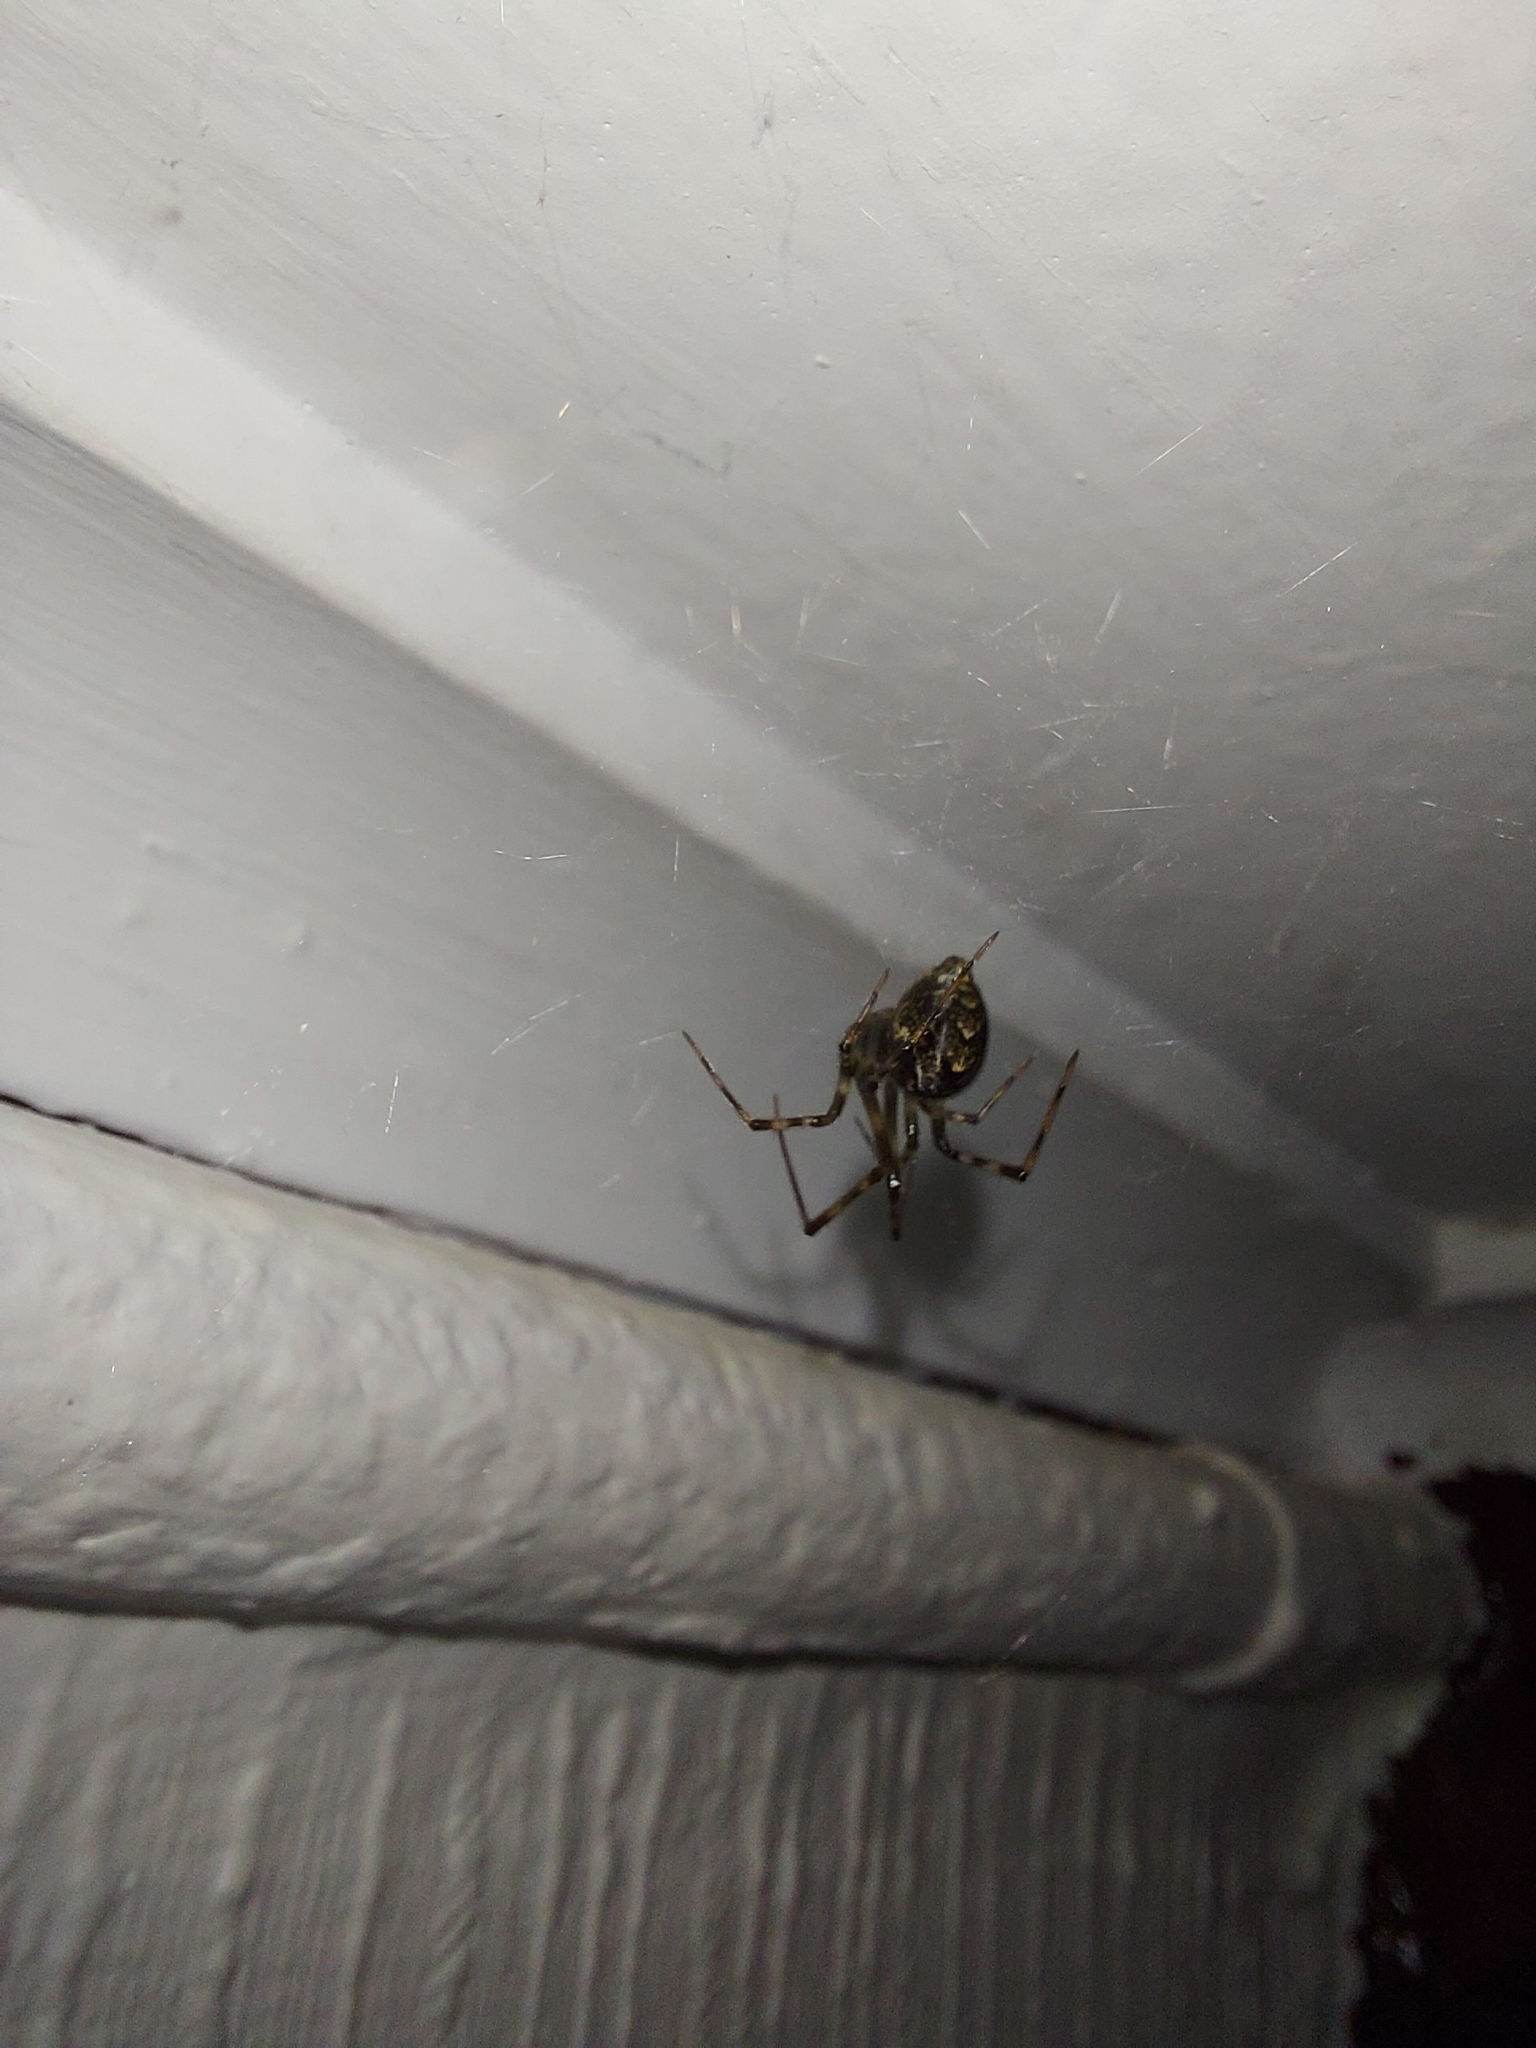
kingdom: Animalia
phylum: Arthropoda
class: Arachnida
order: Araneae
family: Theridiidae
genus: Parasteatoda
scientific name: Parasteatoda tepidariorum
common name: Common house spider
